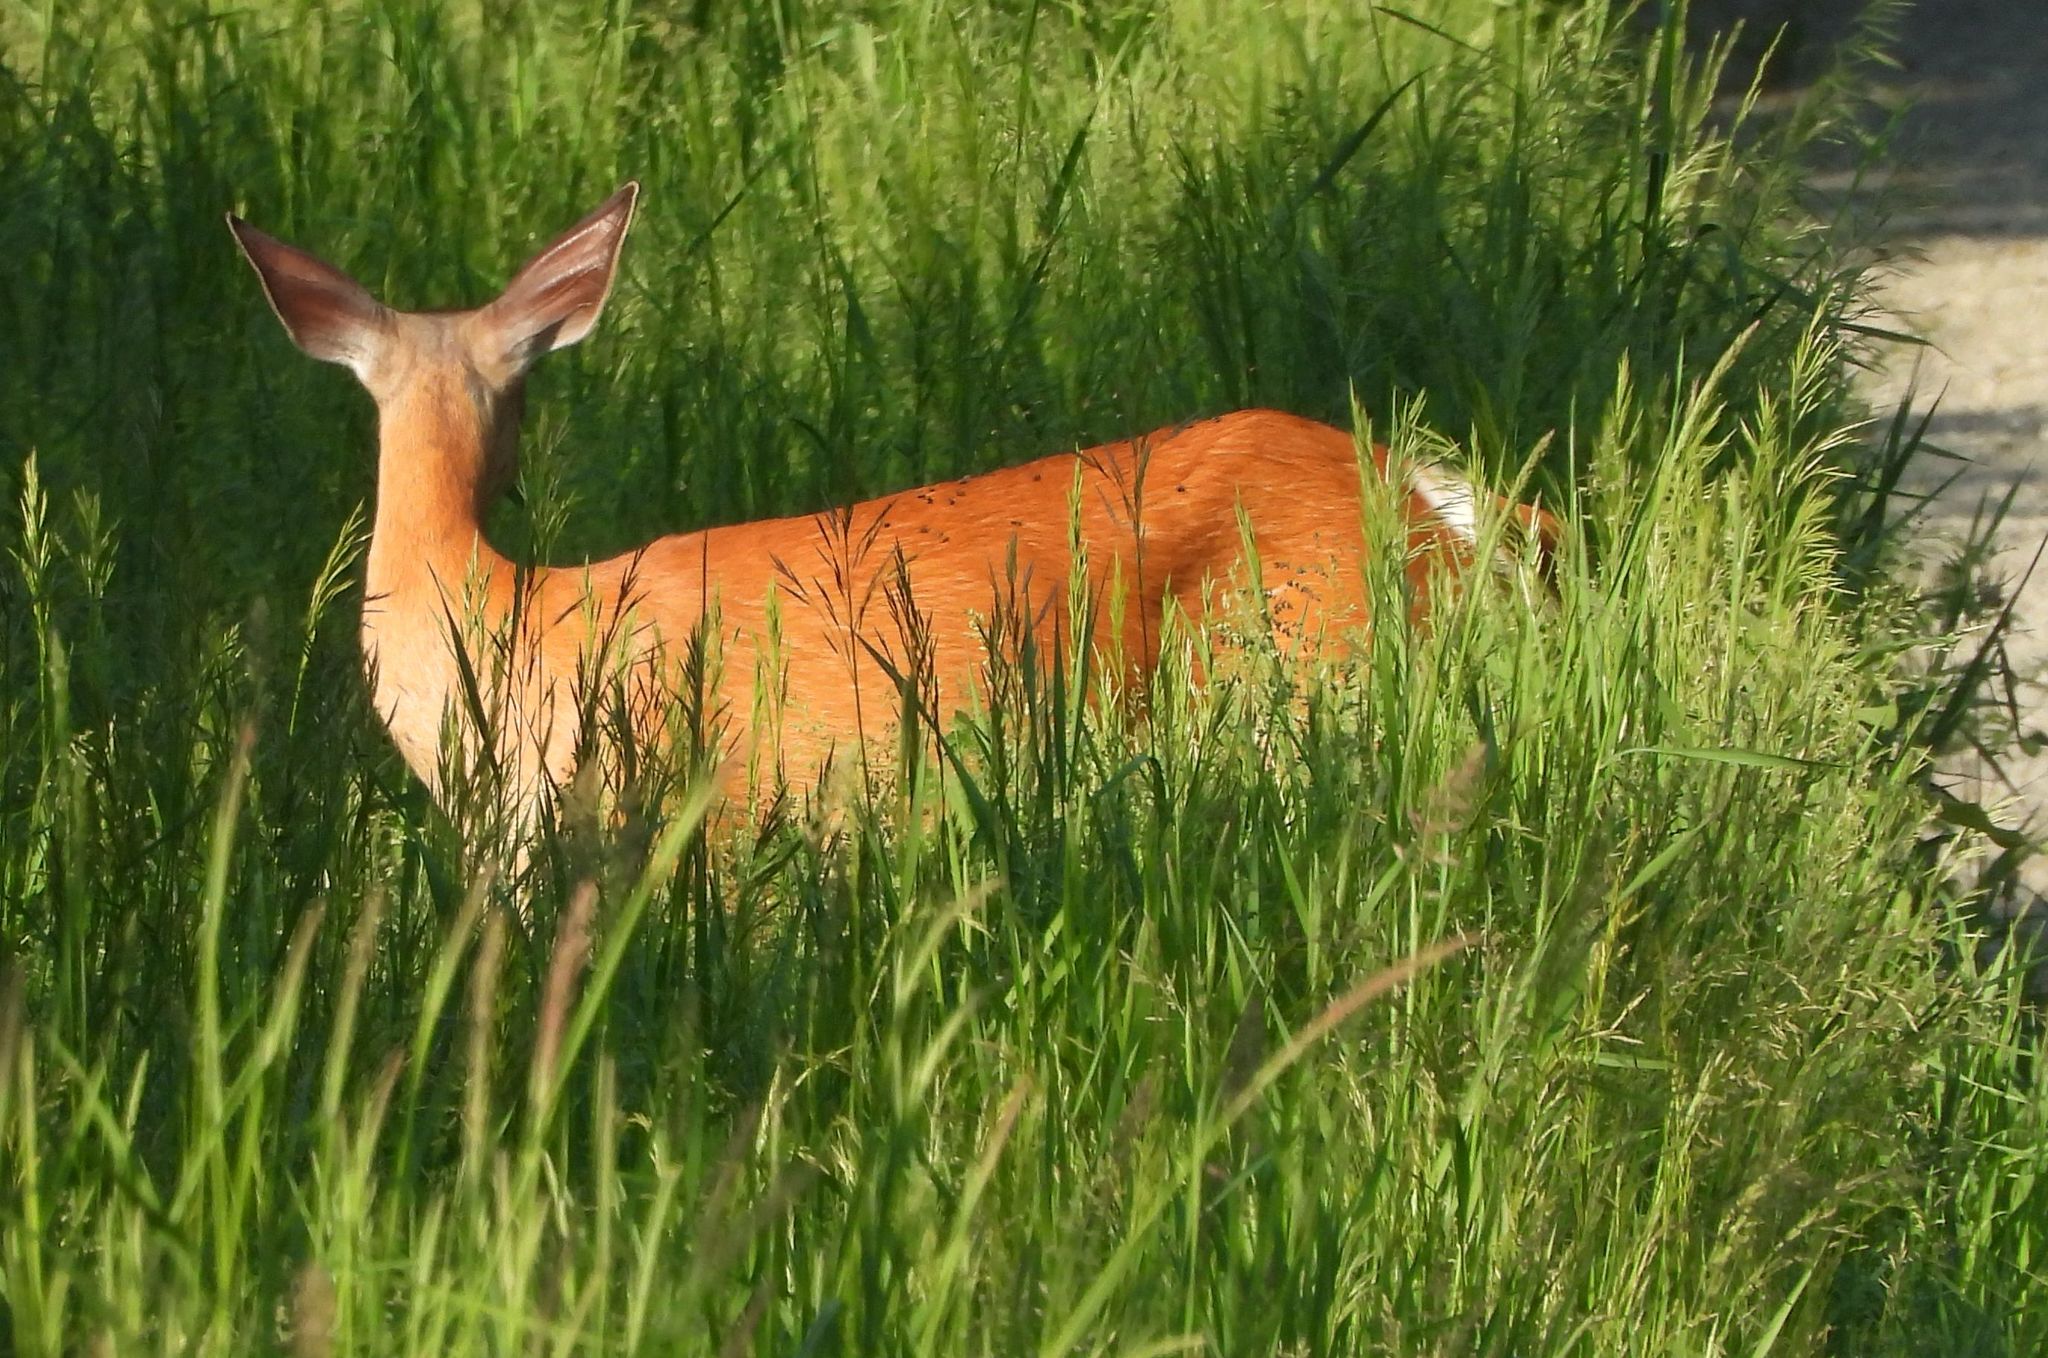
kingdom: Animalia
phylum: Chordata
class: Mammalia
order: Artiodactyla
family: Cervidae
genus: Odocoileus
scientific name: Odocoileus virginianus
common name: White-tailed deer
